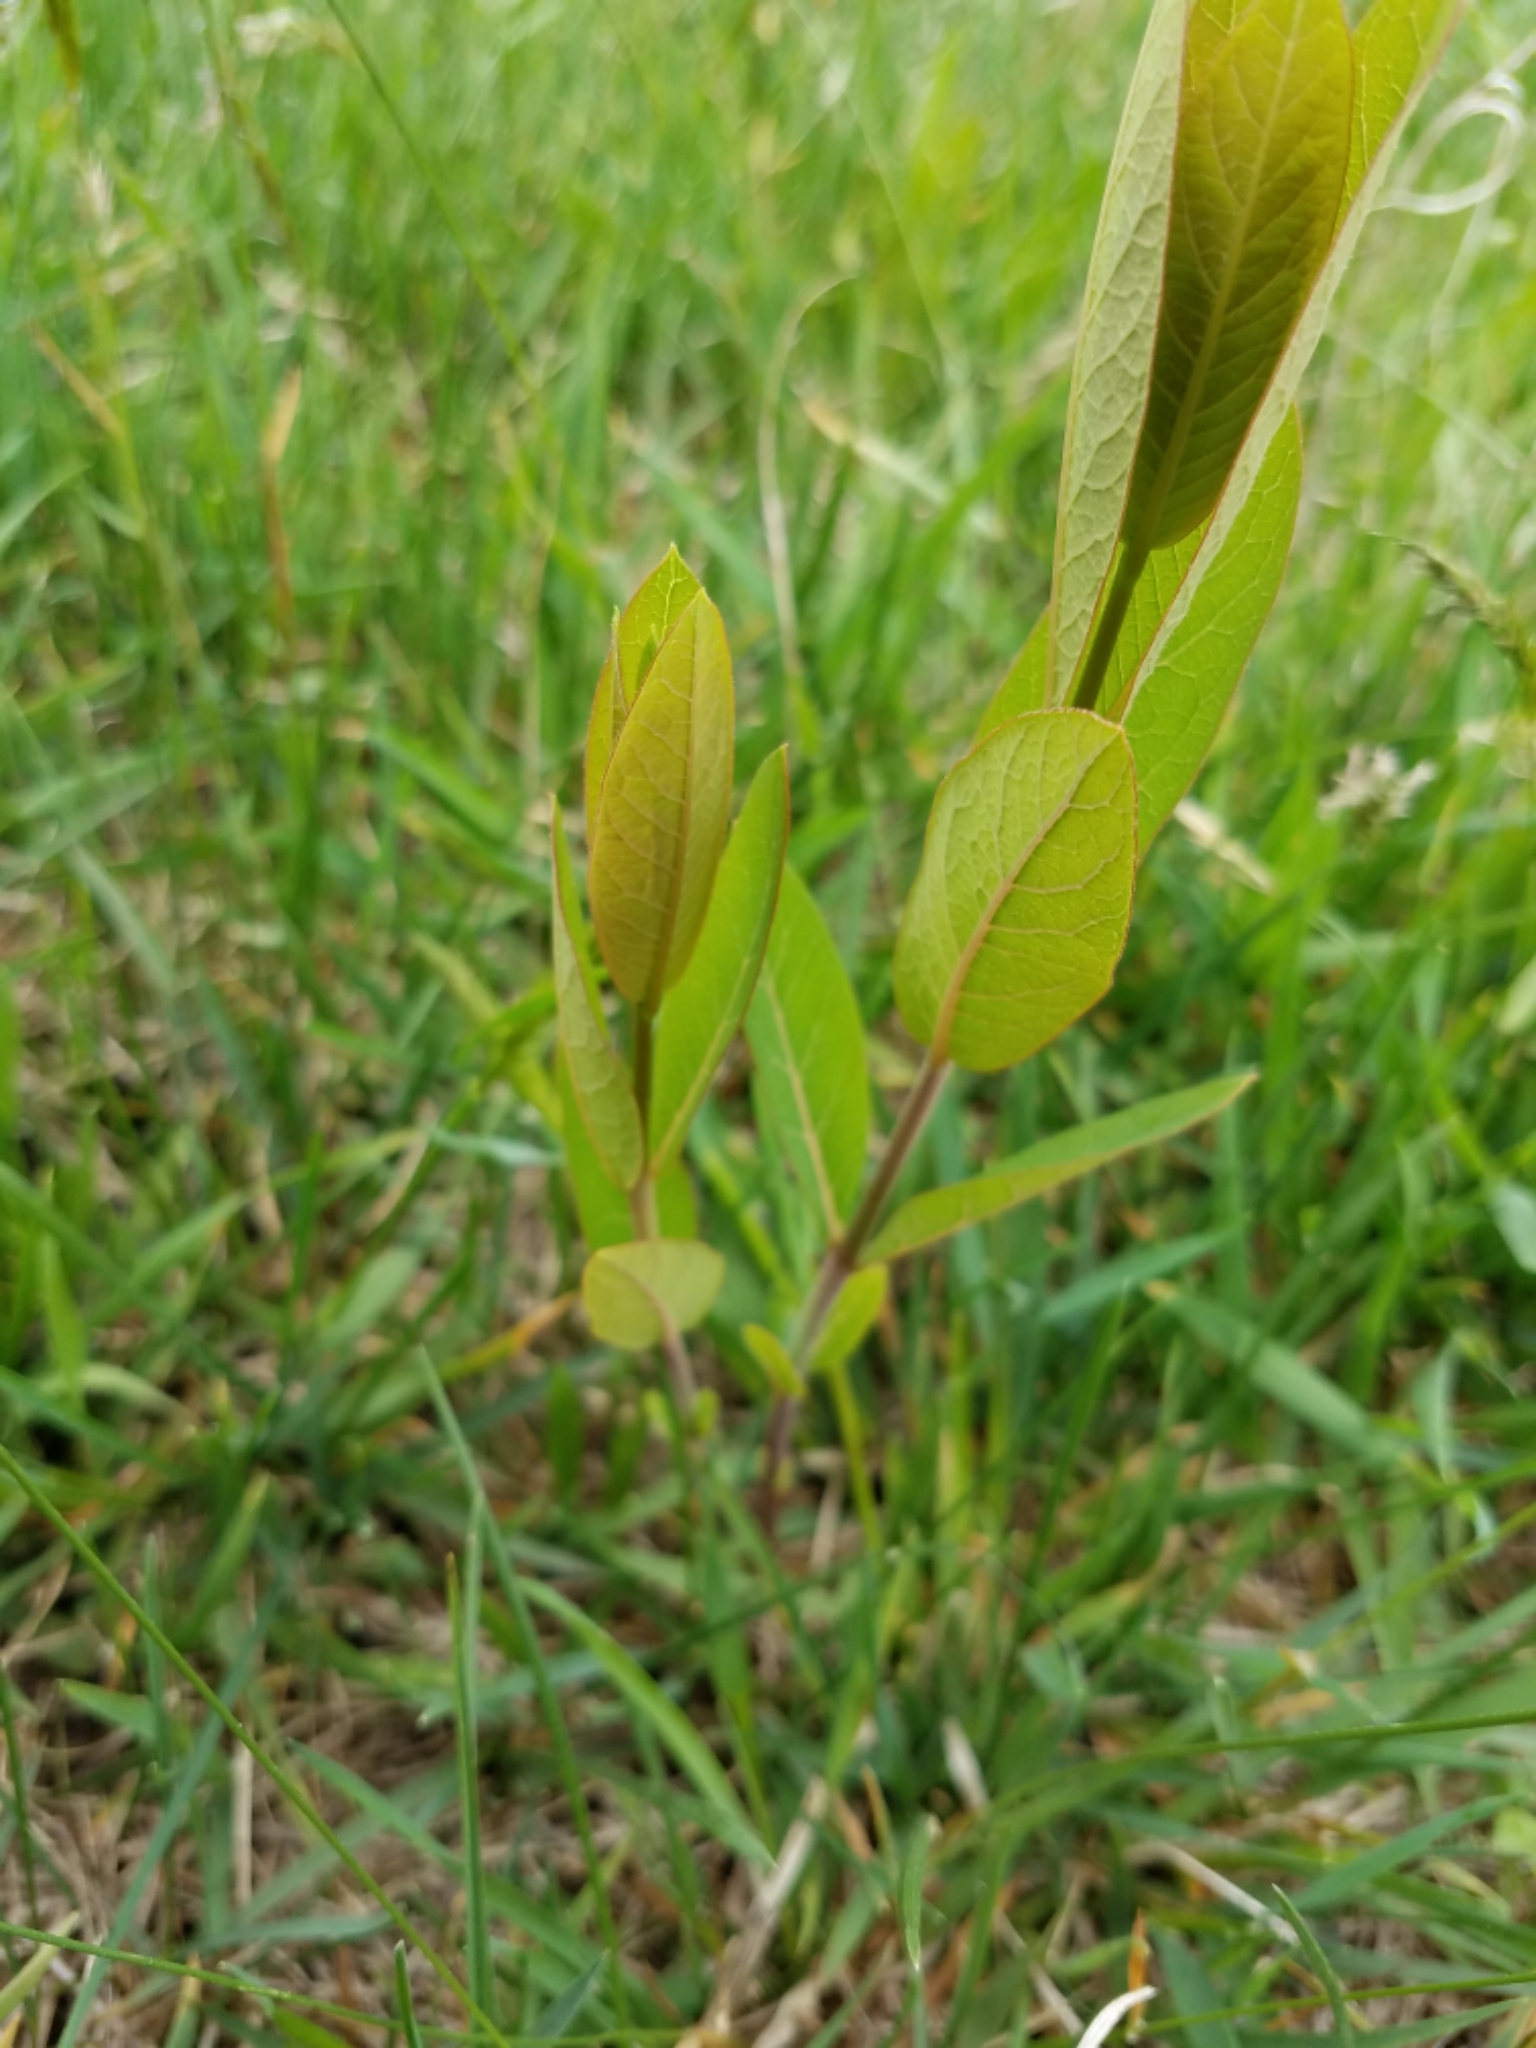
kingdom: Plantae
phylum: Tracheophyta
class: Magnoliopsida
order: Gentianales
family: Apocynaceae
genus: Apocynum
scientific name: Apocynum cannabinum
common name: Hemp dogbane
